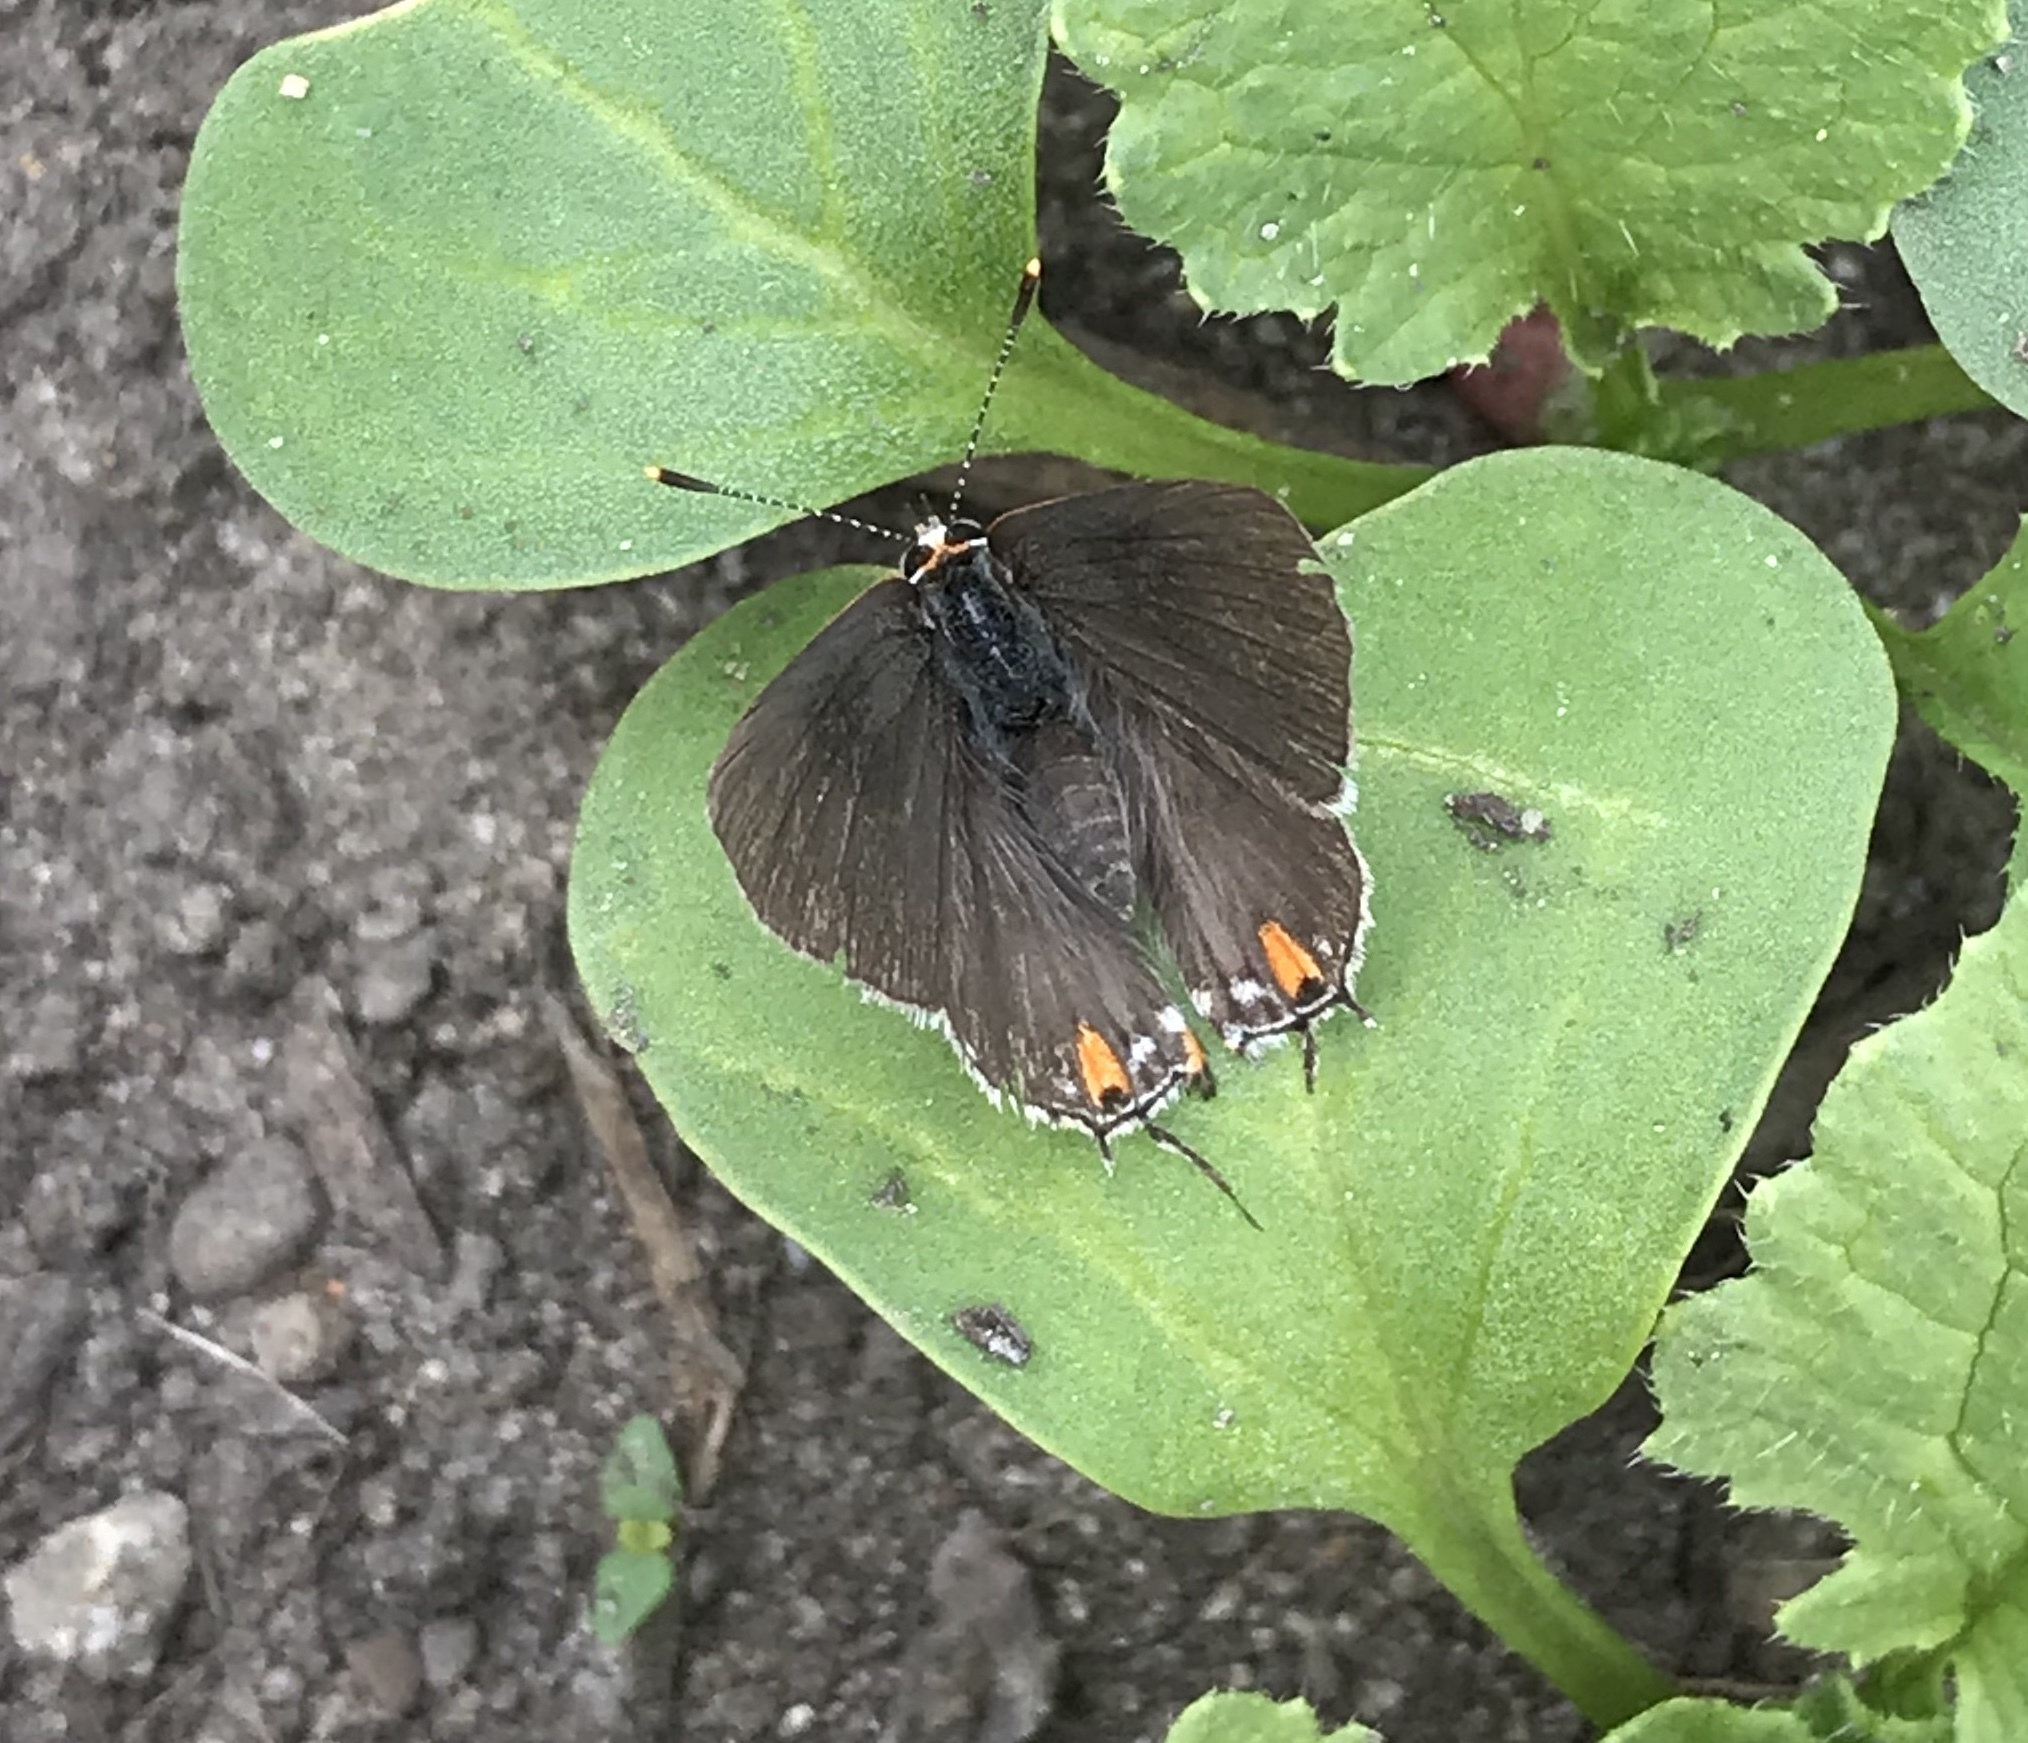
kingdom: Animalia
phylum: Arthropoda
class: Insecta
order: Lepidoptera
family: Lycaenidae
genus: Strymon
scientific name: Strymon melinus
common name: Gray hairstreak
